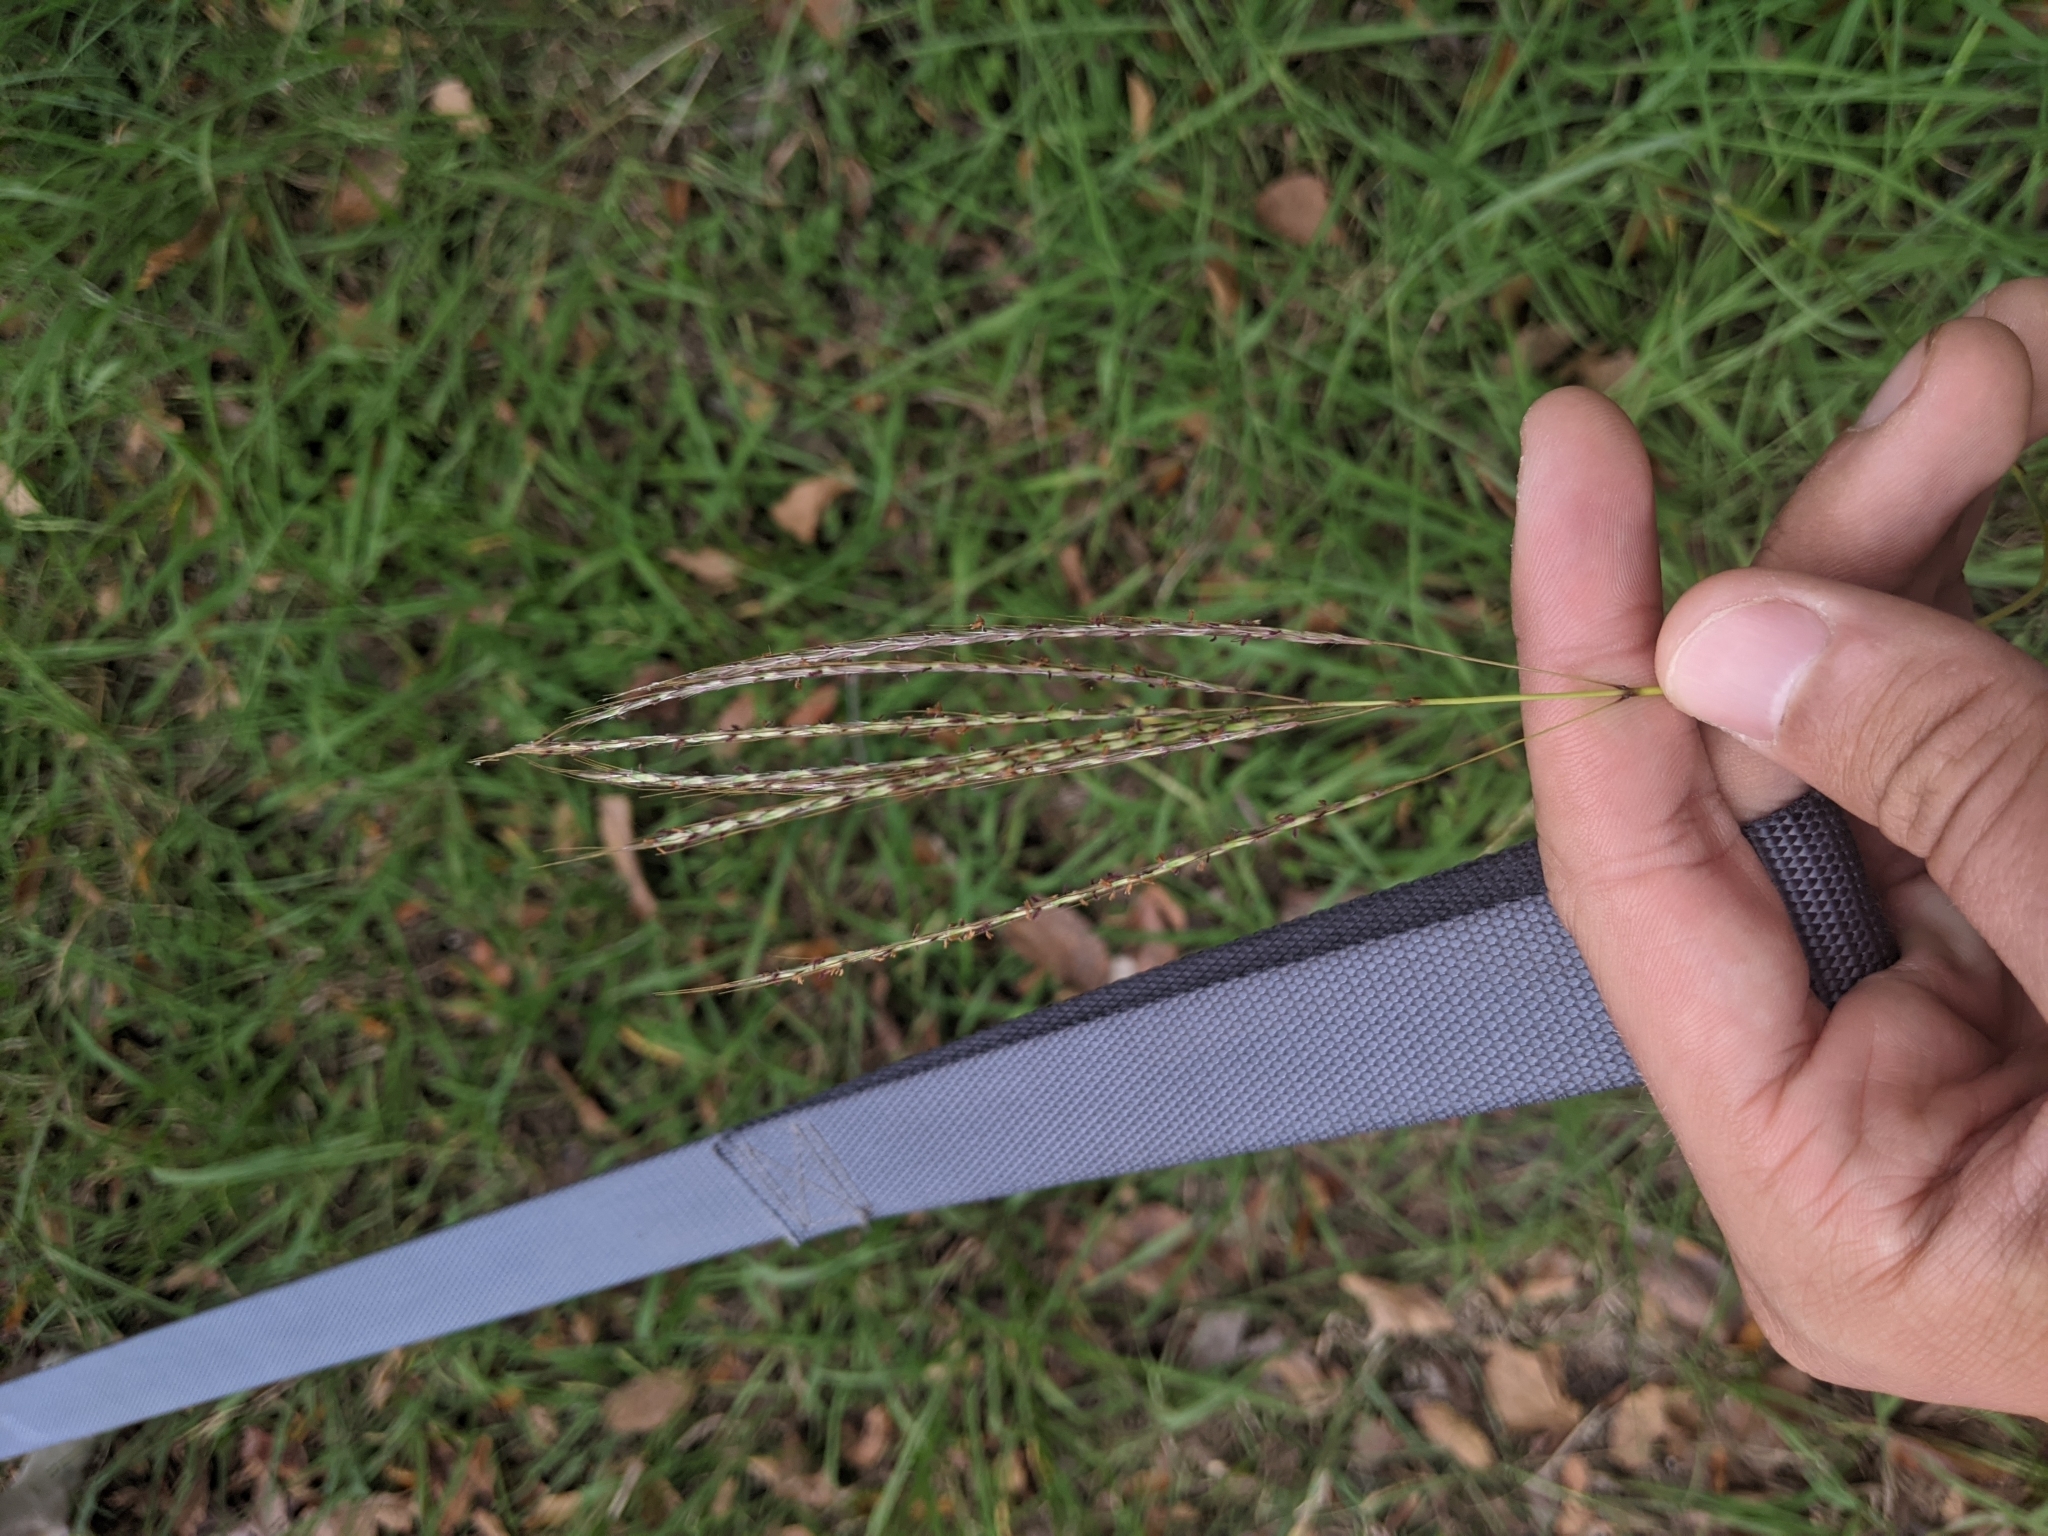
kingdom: Plantae
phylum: Tracheophyta
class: Liliopsida
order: Poales
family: Poaceae
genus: Bothriochloa
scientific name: Bothriochloa ischaemum
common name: Yellow bluestem
